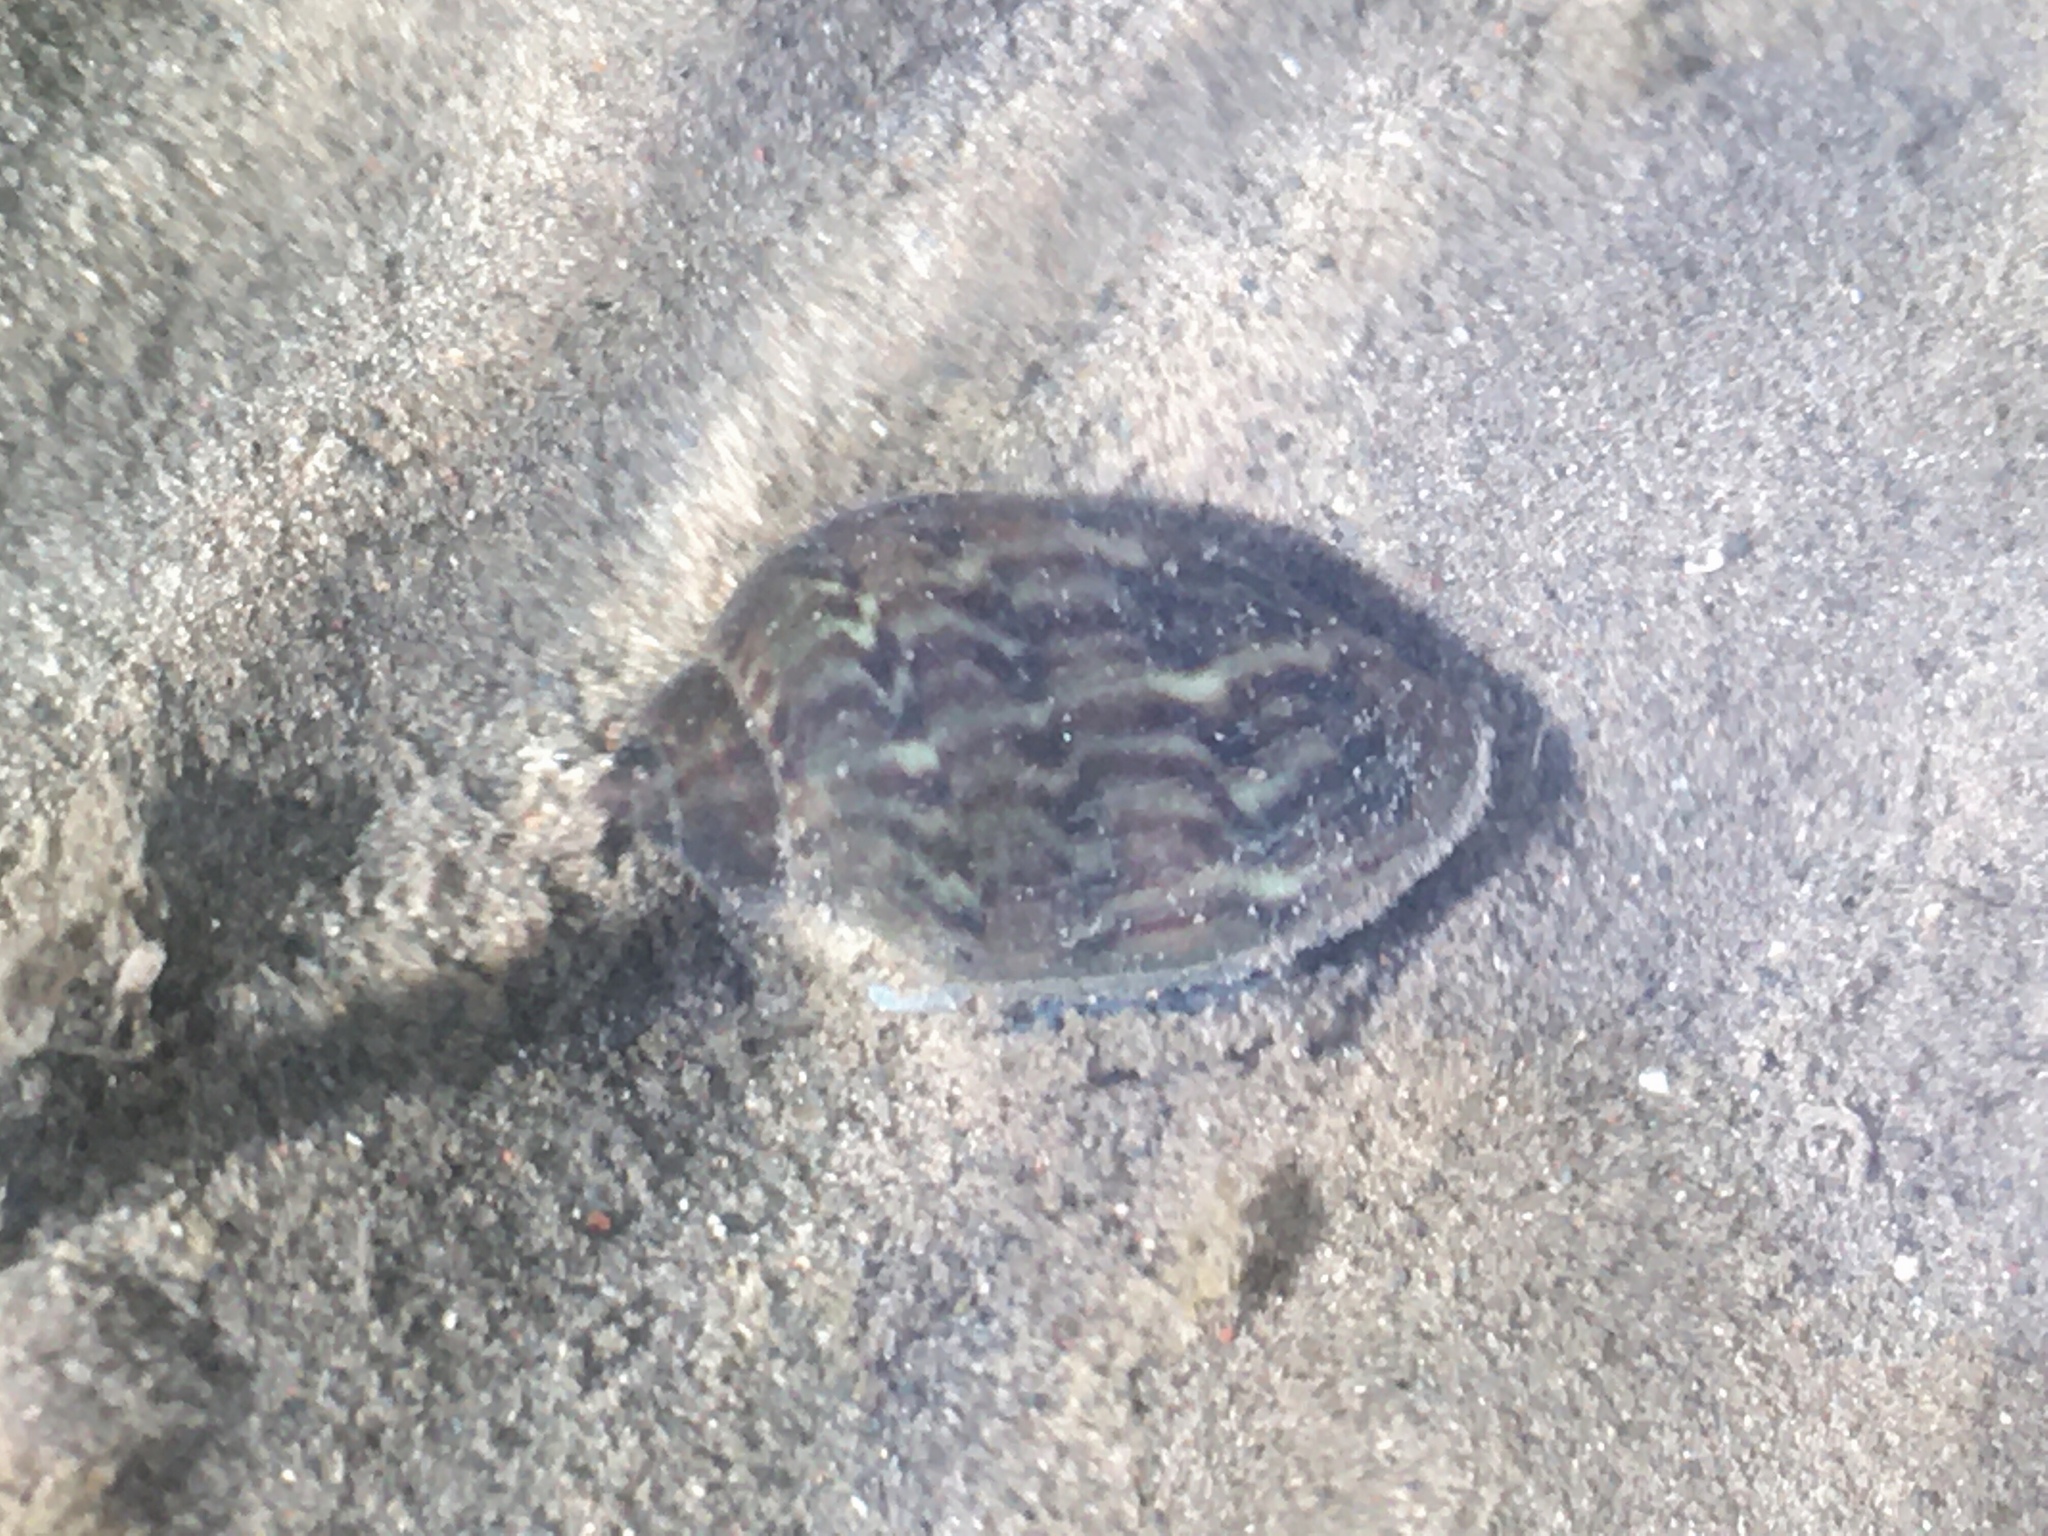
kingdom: Animalia
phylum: Mollusca
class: Gastropoda
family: Chilinidae
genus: Chilina
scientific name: Chilina parchappii
